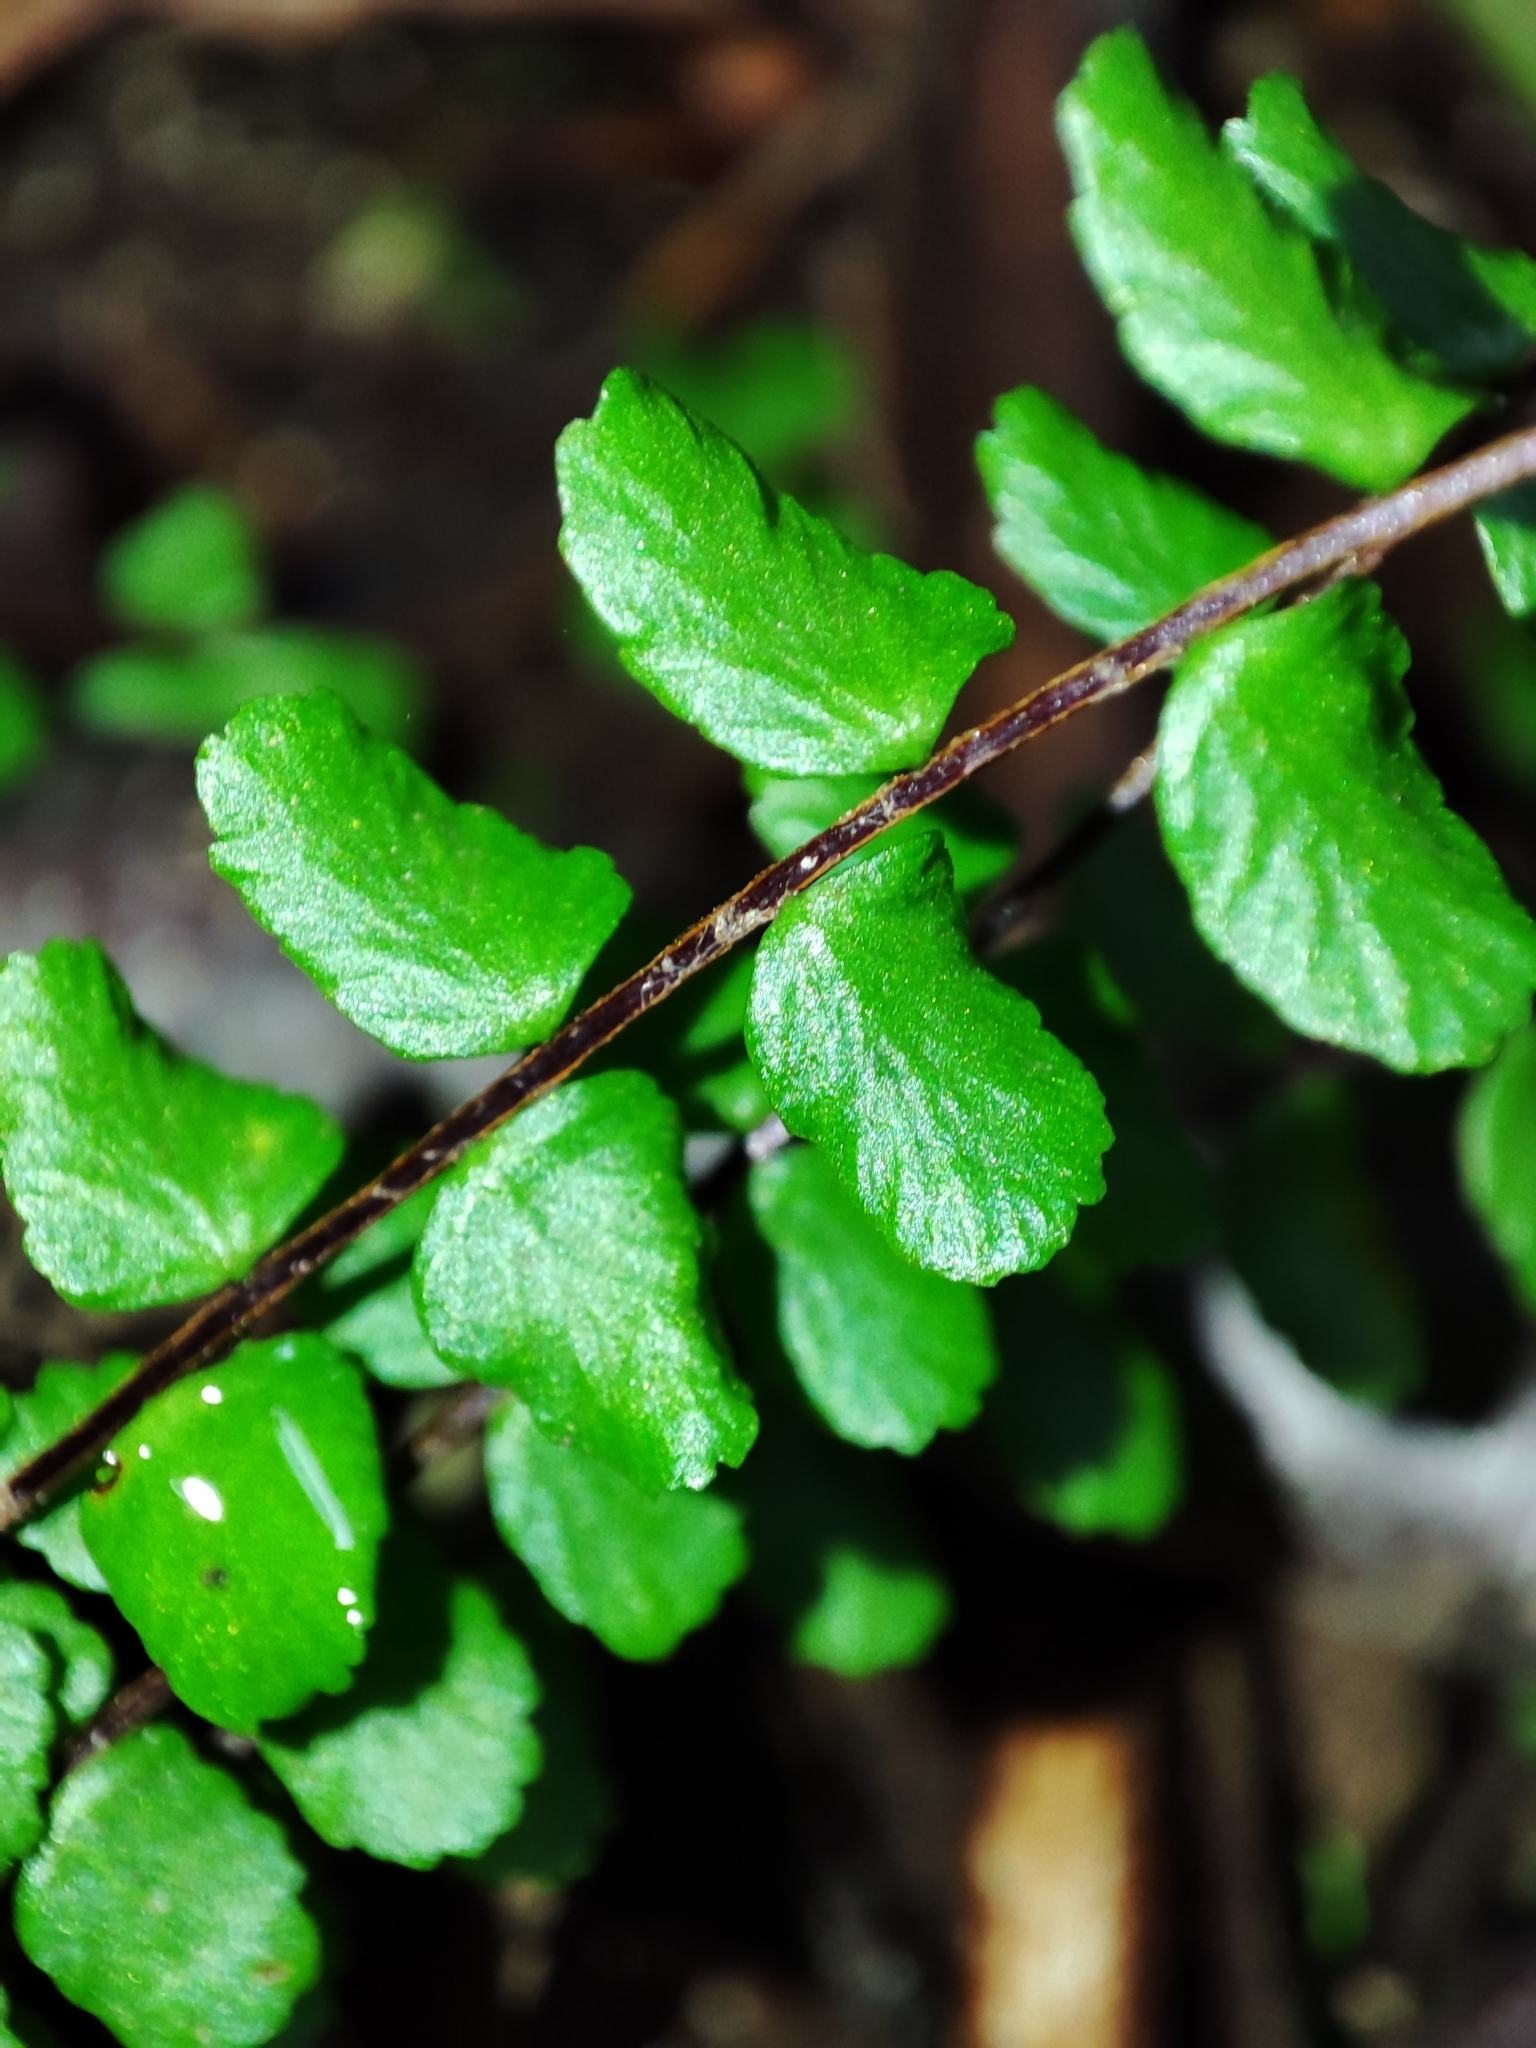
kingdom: Plantae
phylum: Tracheophyta
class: Polypodiopsida
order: Polypodiales
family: Aspleniaceae
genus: Asplenium
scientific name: Asplenium trichomanes
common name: Maidenhair spleenwort
